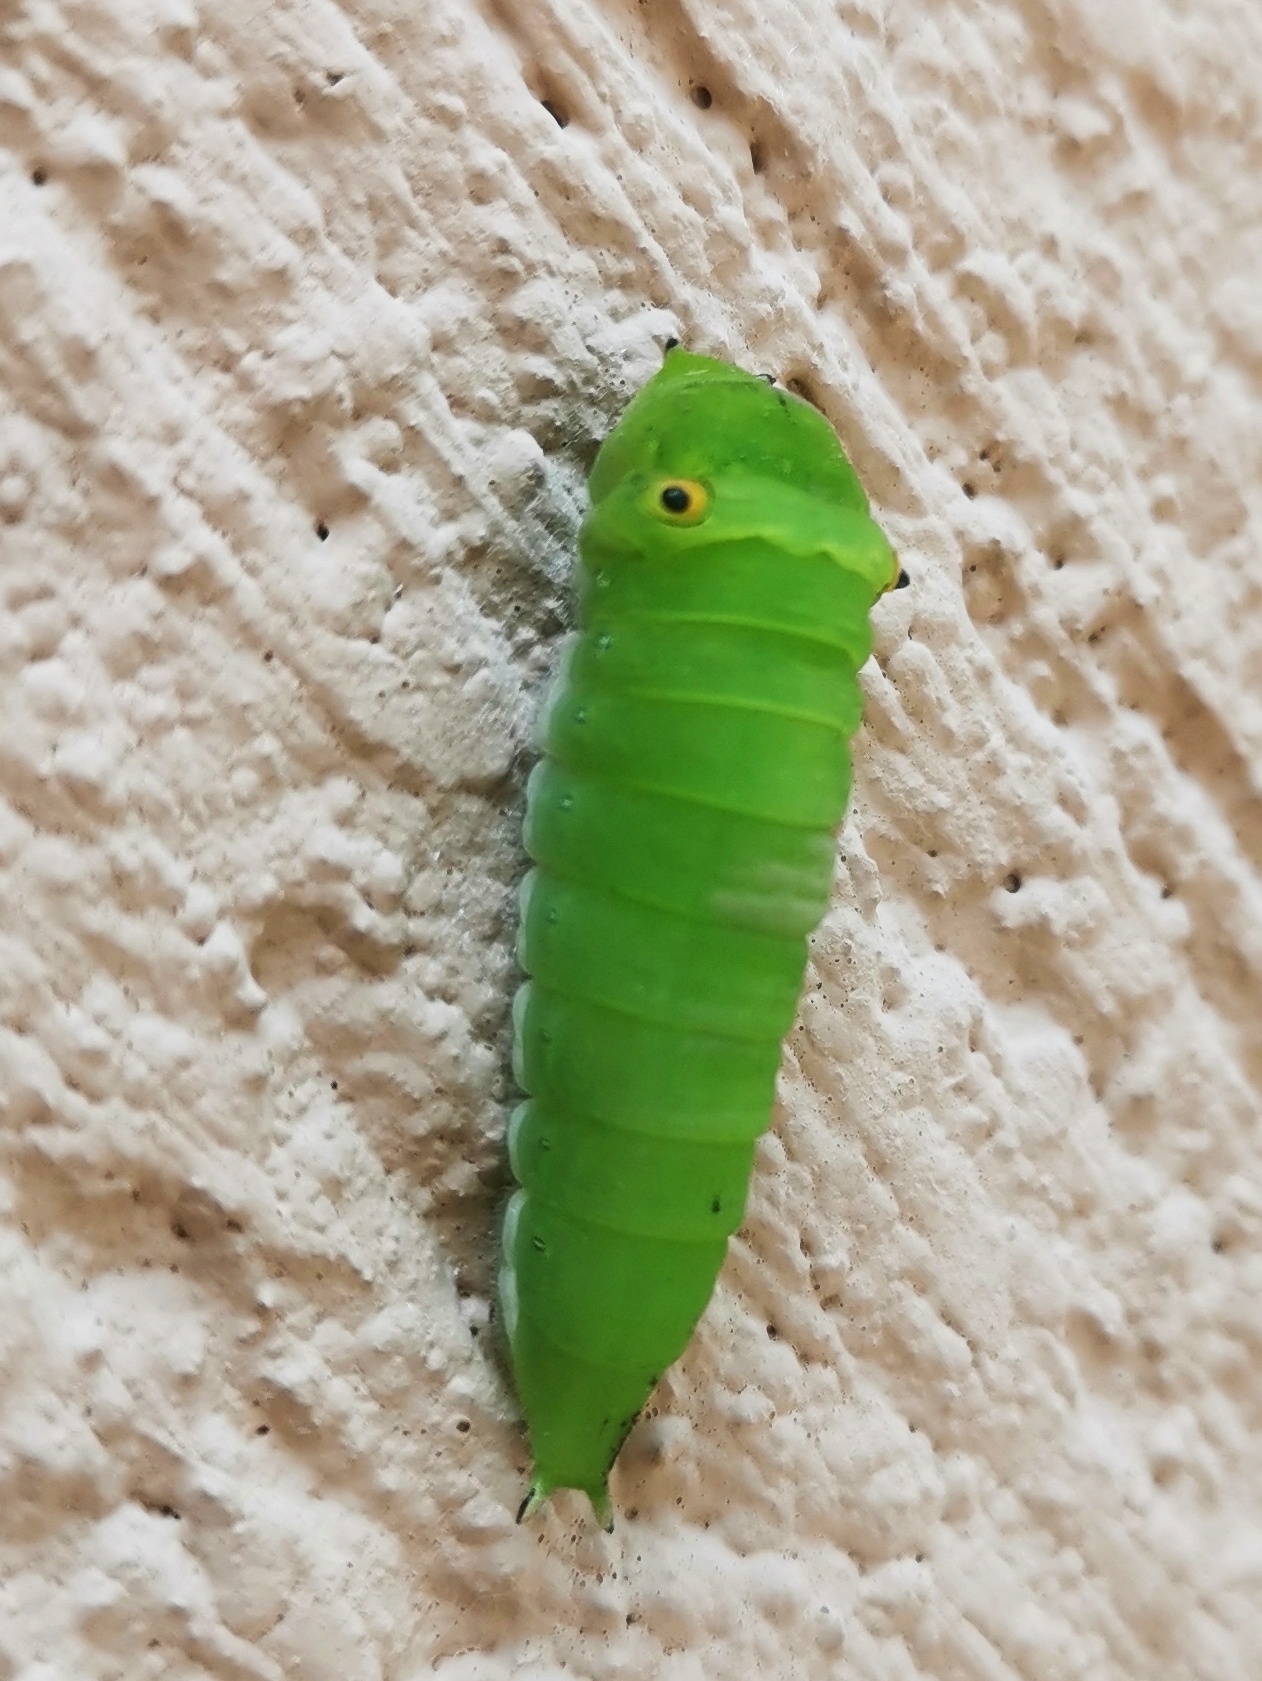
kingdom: Animalia
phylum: Arthropoda
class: Insecta
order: Lepidoptera
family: Papilionidae
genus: Graphium
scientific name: Graphium doson
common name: Common jay
